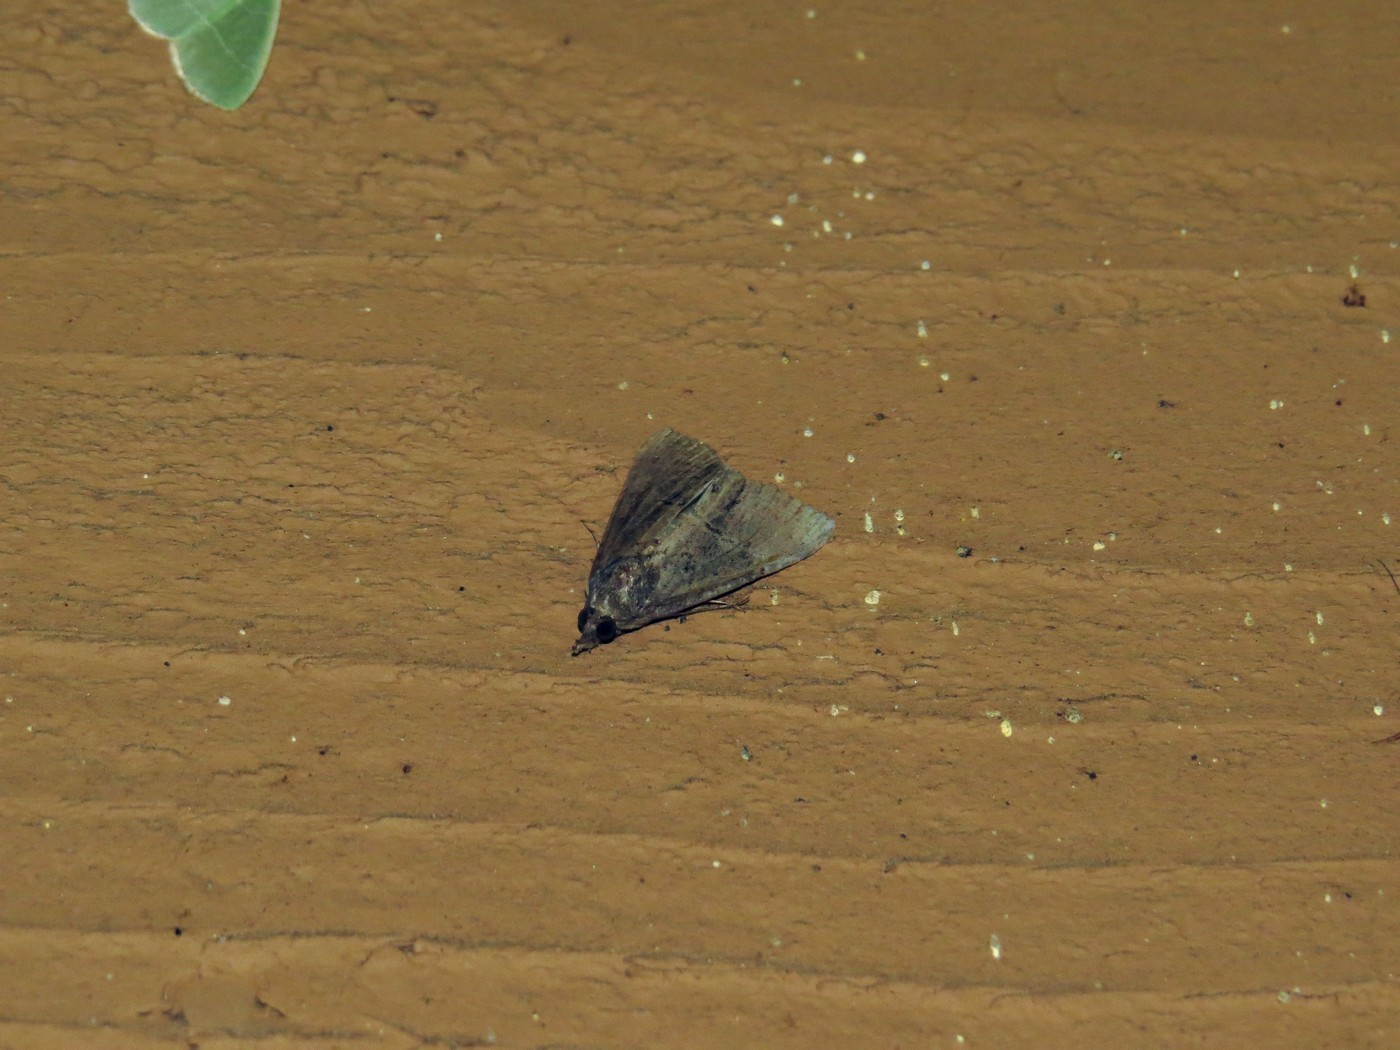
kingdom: Animalia
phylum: Arthropoda
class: Insecta
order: Lepidoptera
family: Erebidae
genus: Hypena
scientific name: Hypena scabra
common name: Green cloverworm
